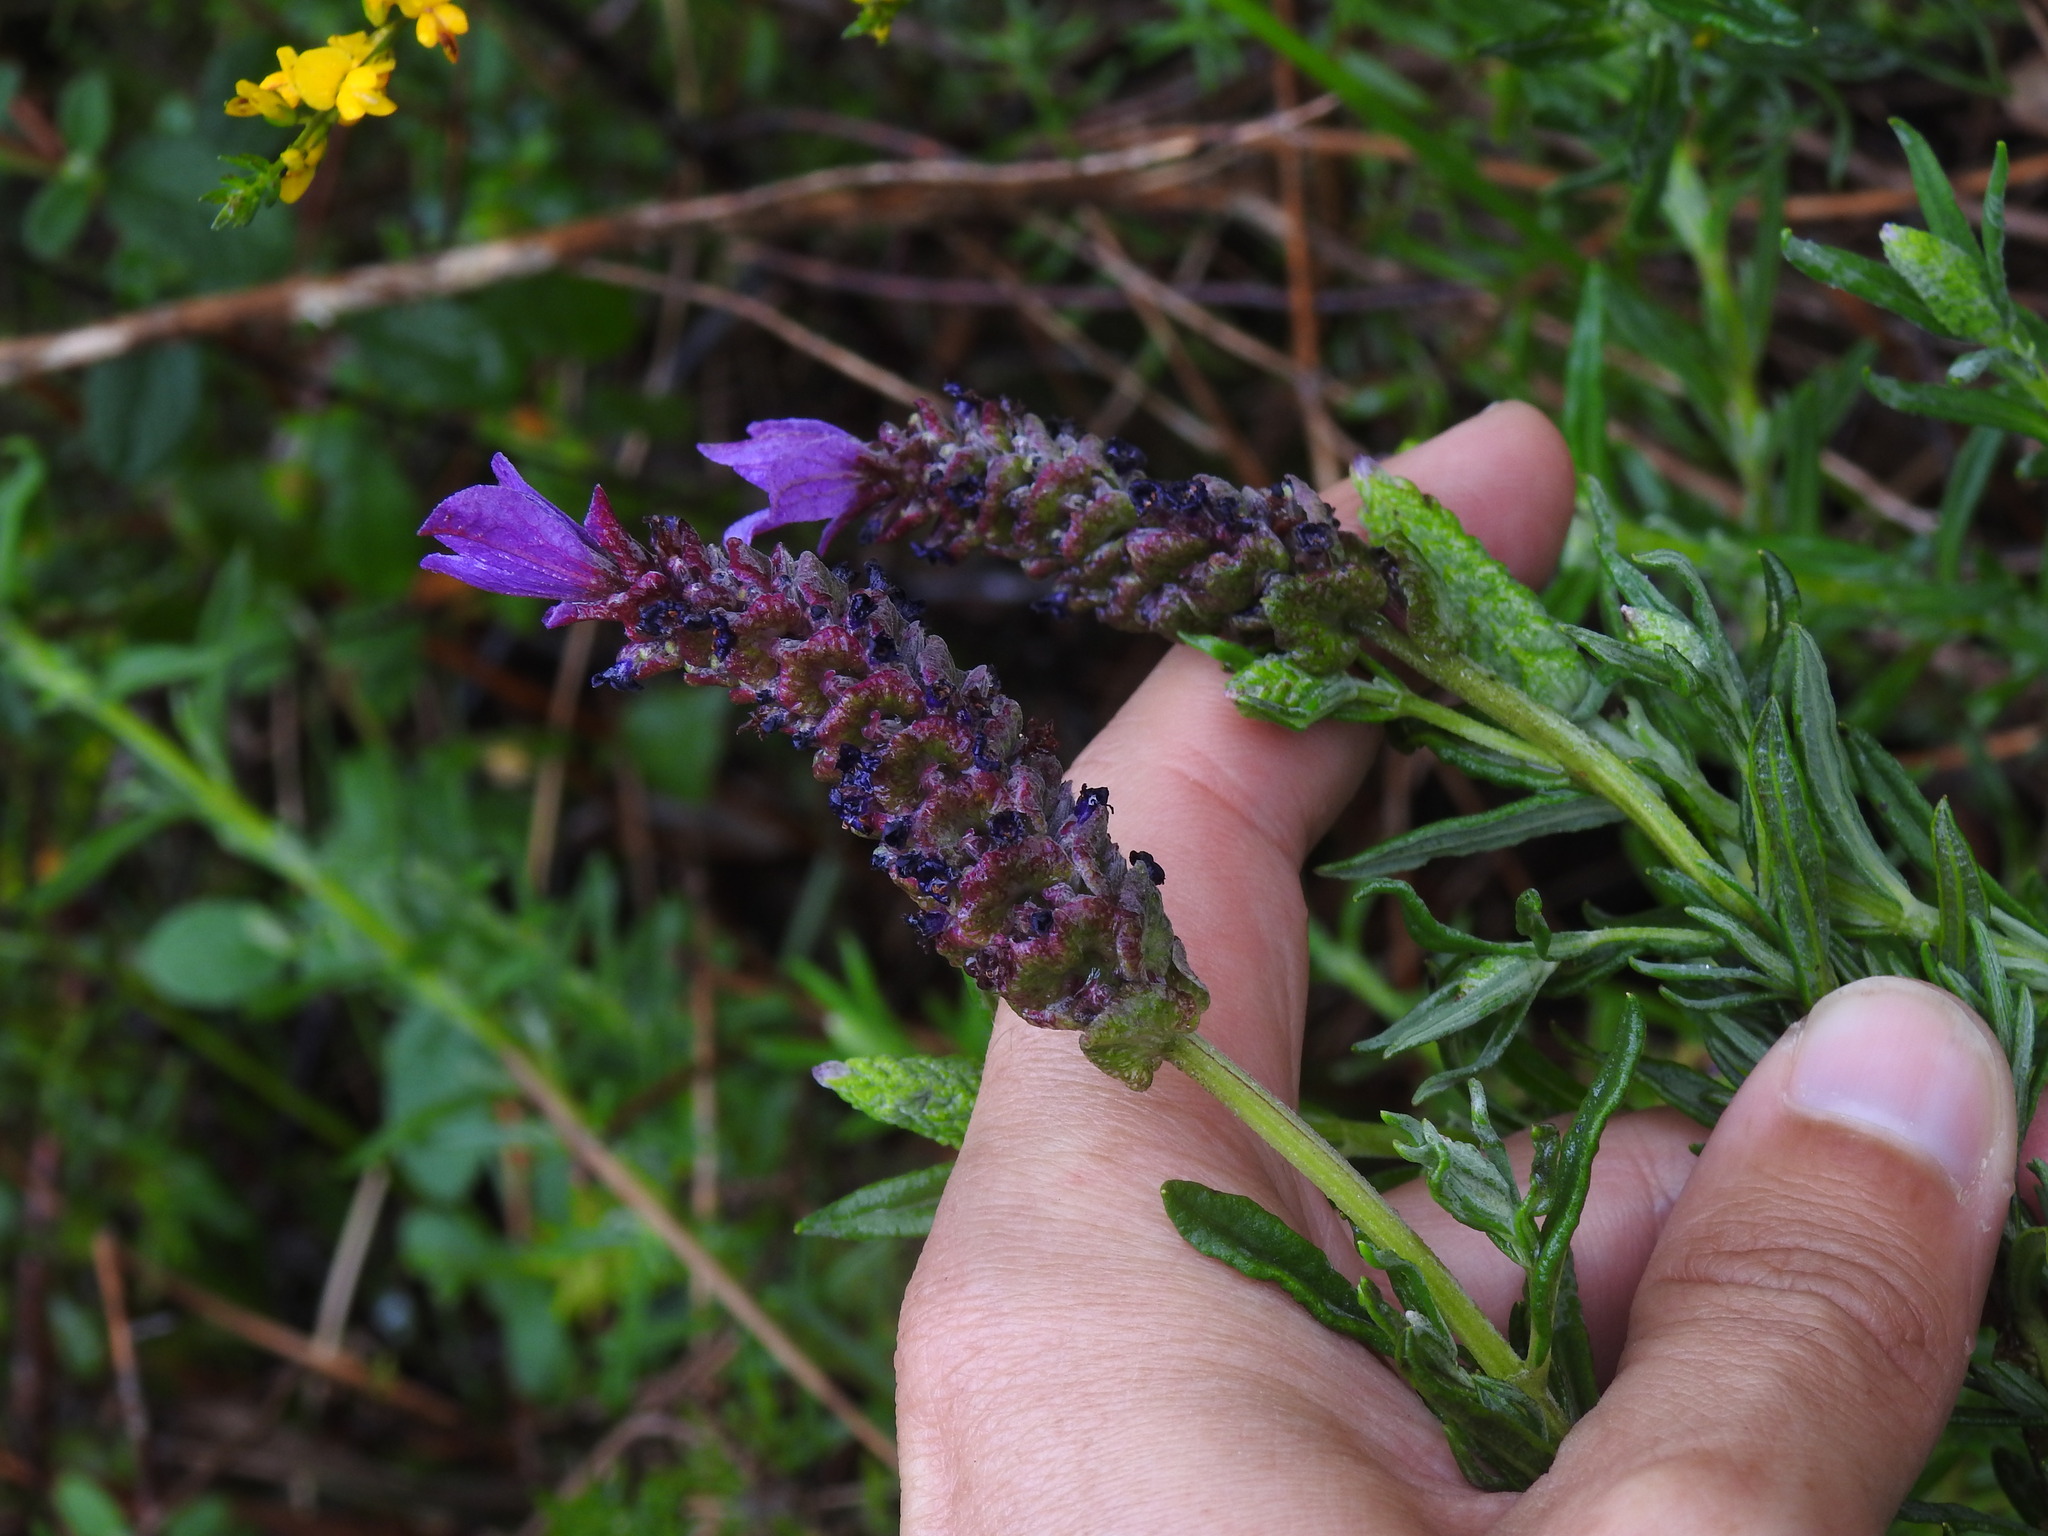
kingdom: Plantae
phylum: Tracheophyta
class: Magnoliopsida
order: Lamiales
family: Lamiaceae
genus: Lavandula
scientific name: Lavandula stoechas
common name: French lavender
